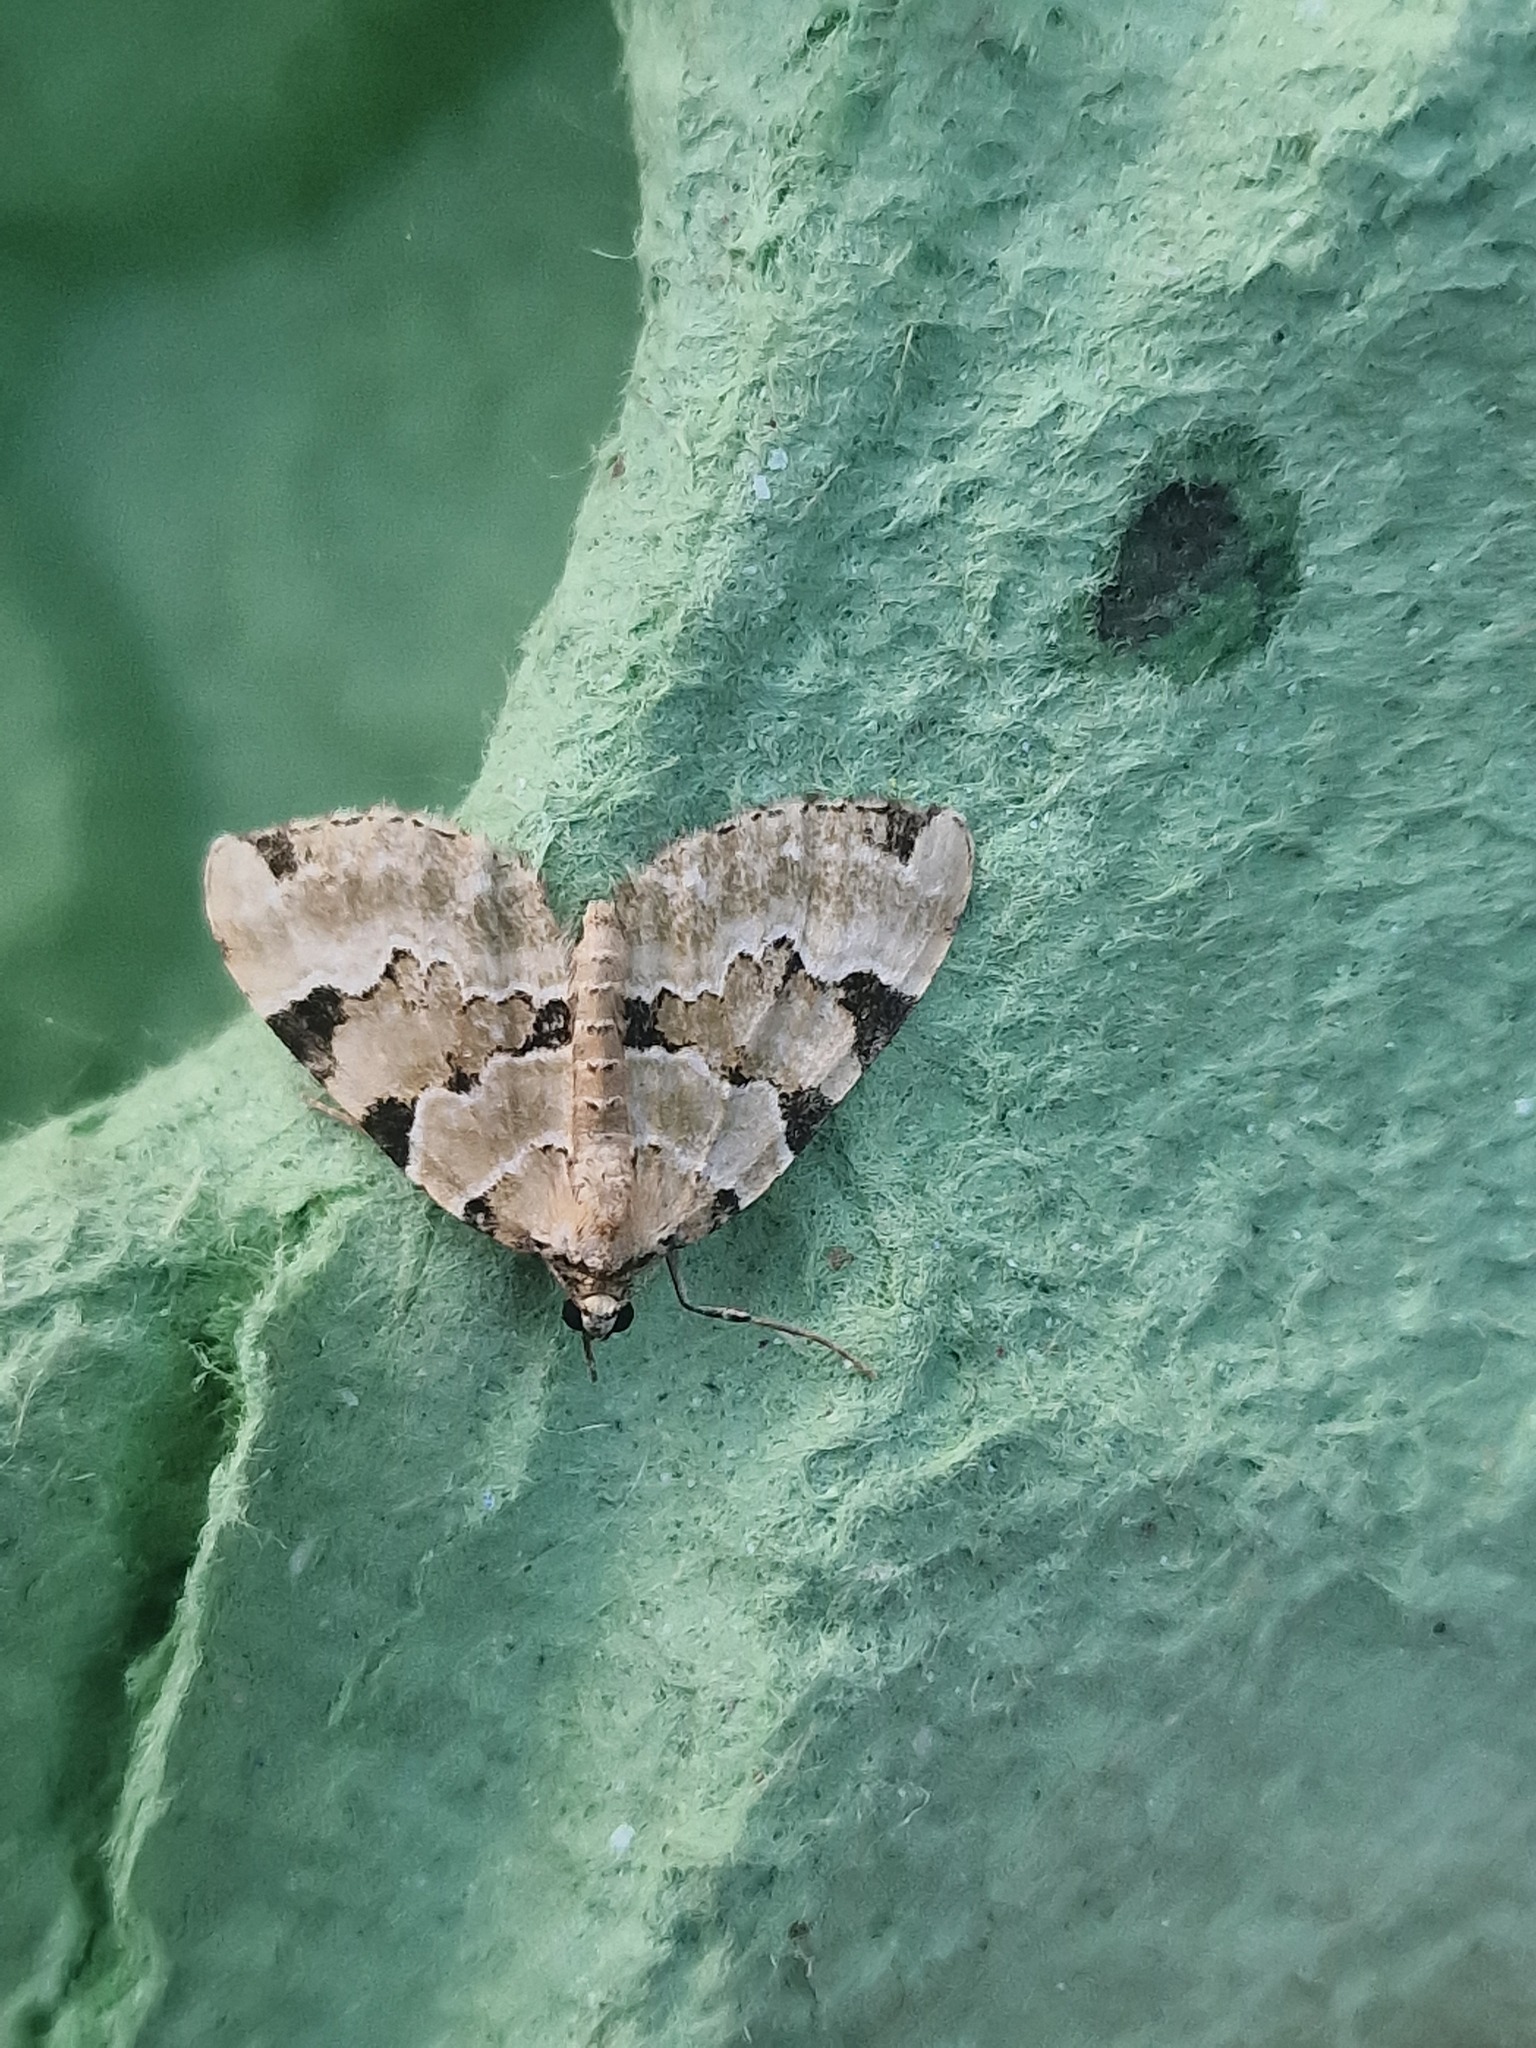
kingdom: Animalia
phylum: Arthropoda
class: Insecta
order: Lepidoptera
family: Geometridae
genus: Colostygia
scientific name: Colostygia pectinataria
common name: Green carpet
